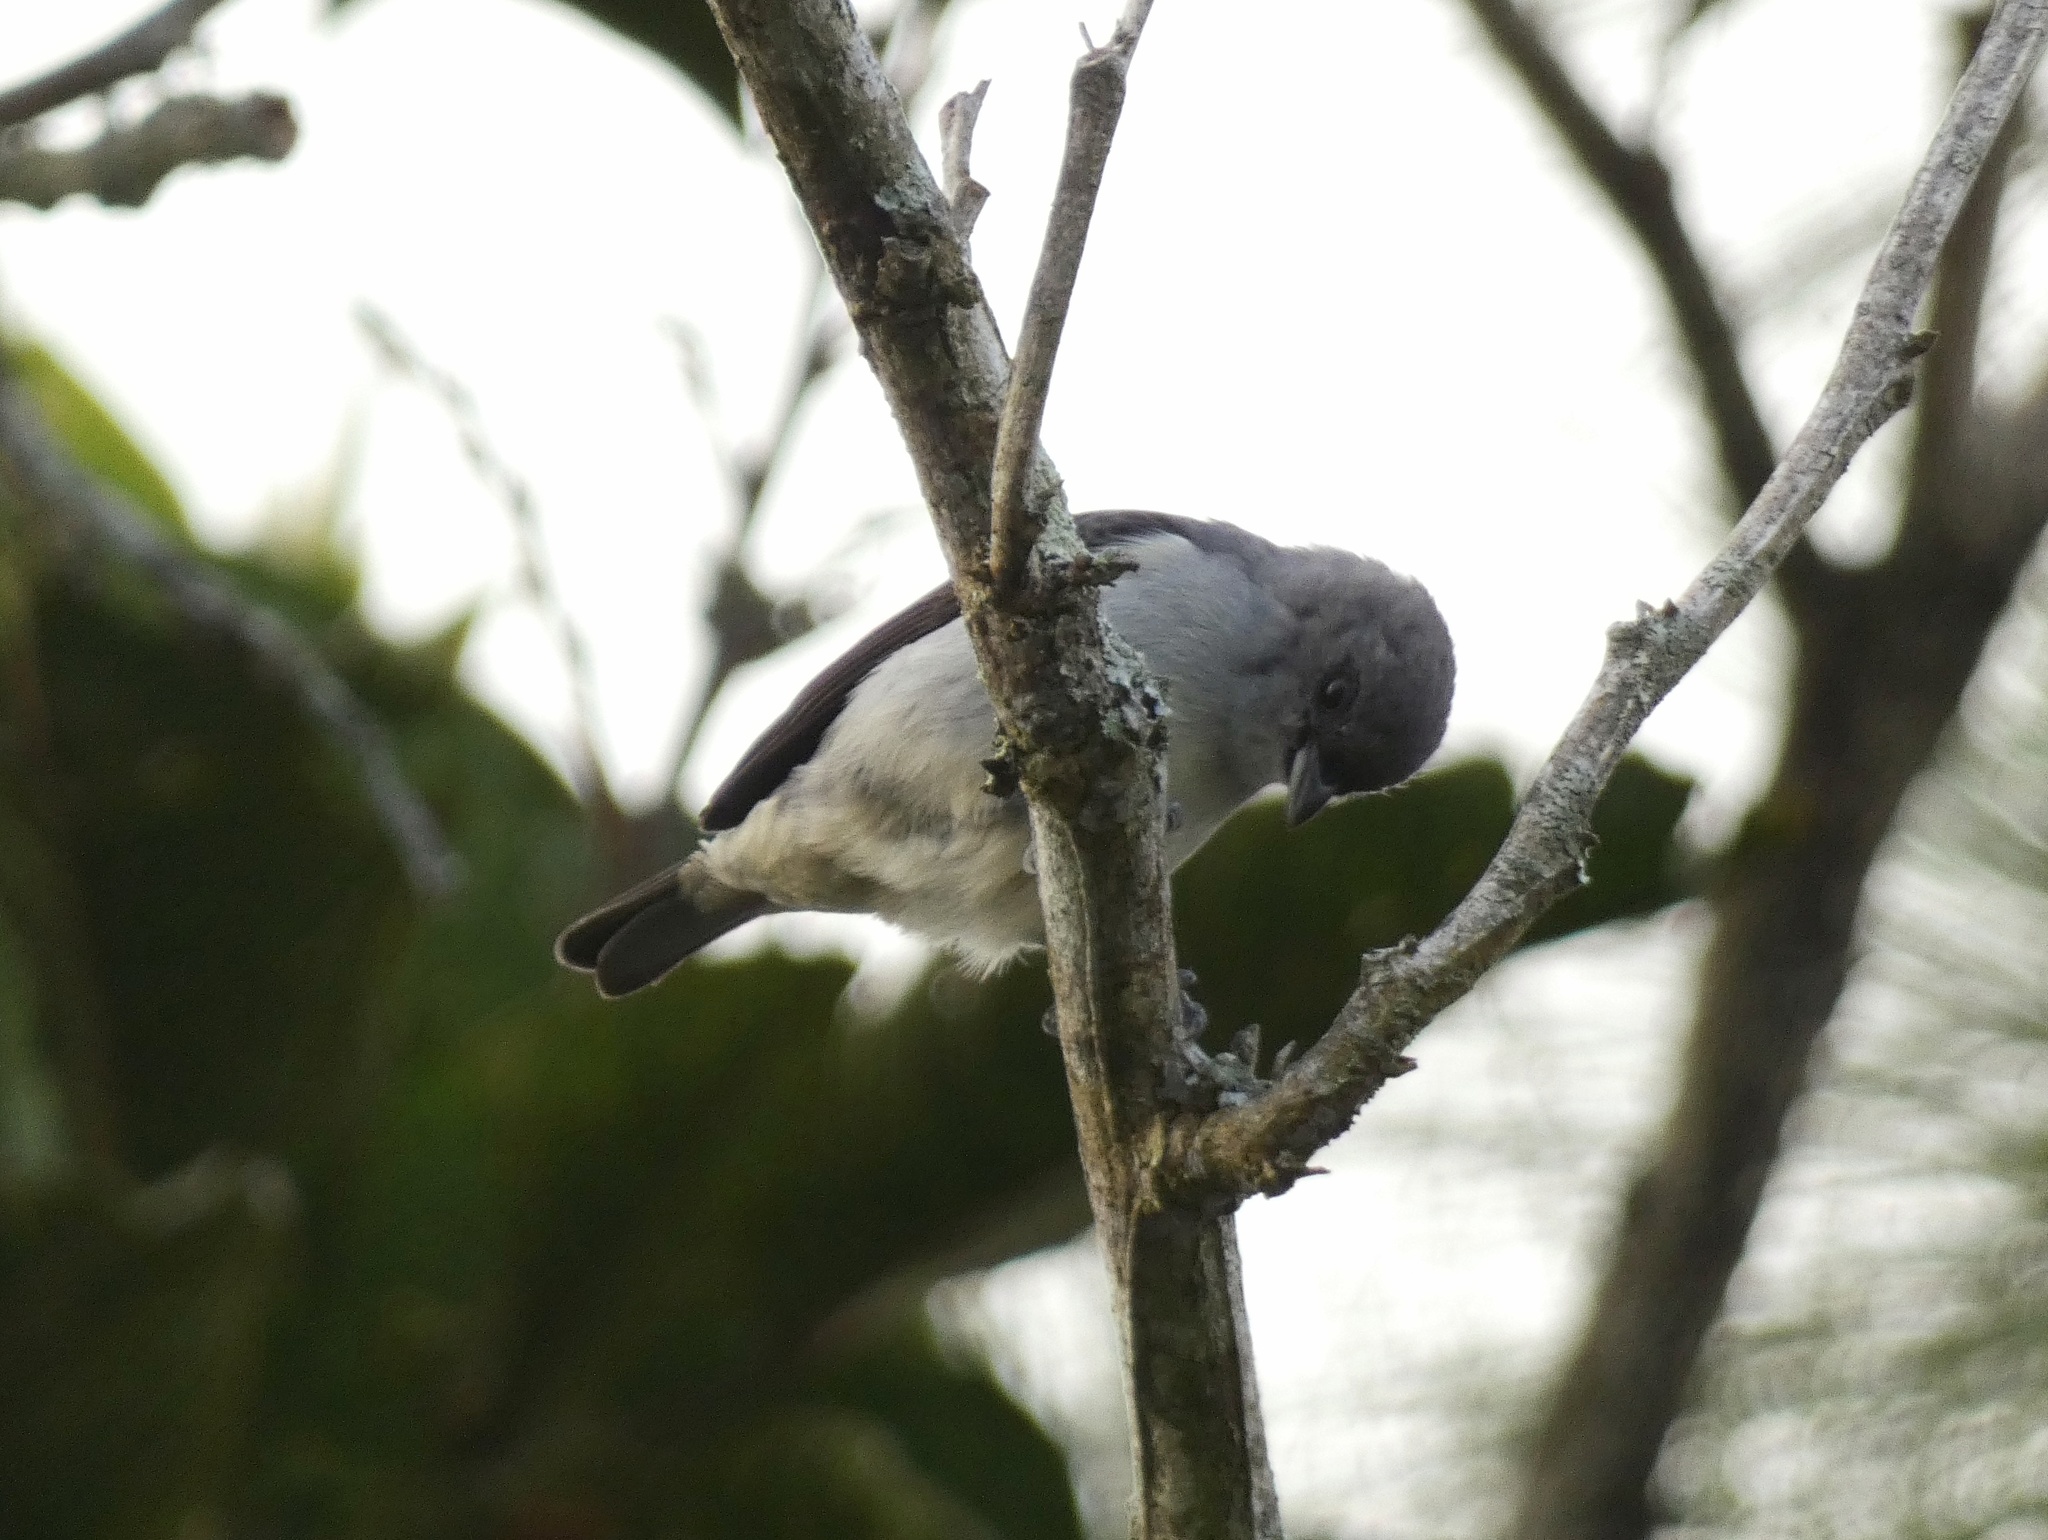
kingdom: Animalia
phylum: Chordata
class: Aves
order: Passeriformes
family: Thraupidae
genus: Tangara
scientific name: Tangara inornata
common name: Plain-colored tanager
